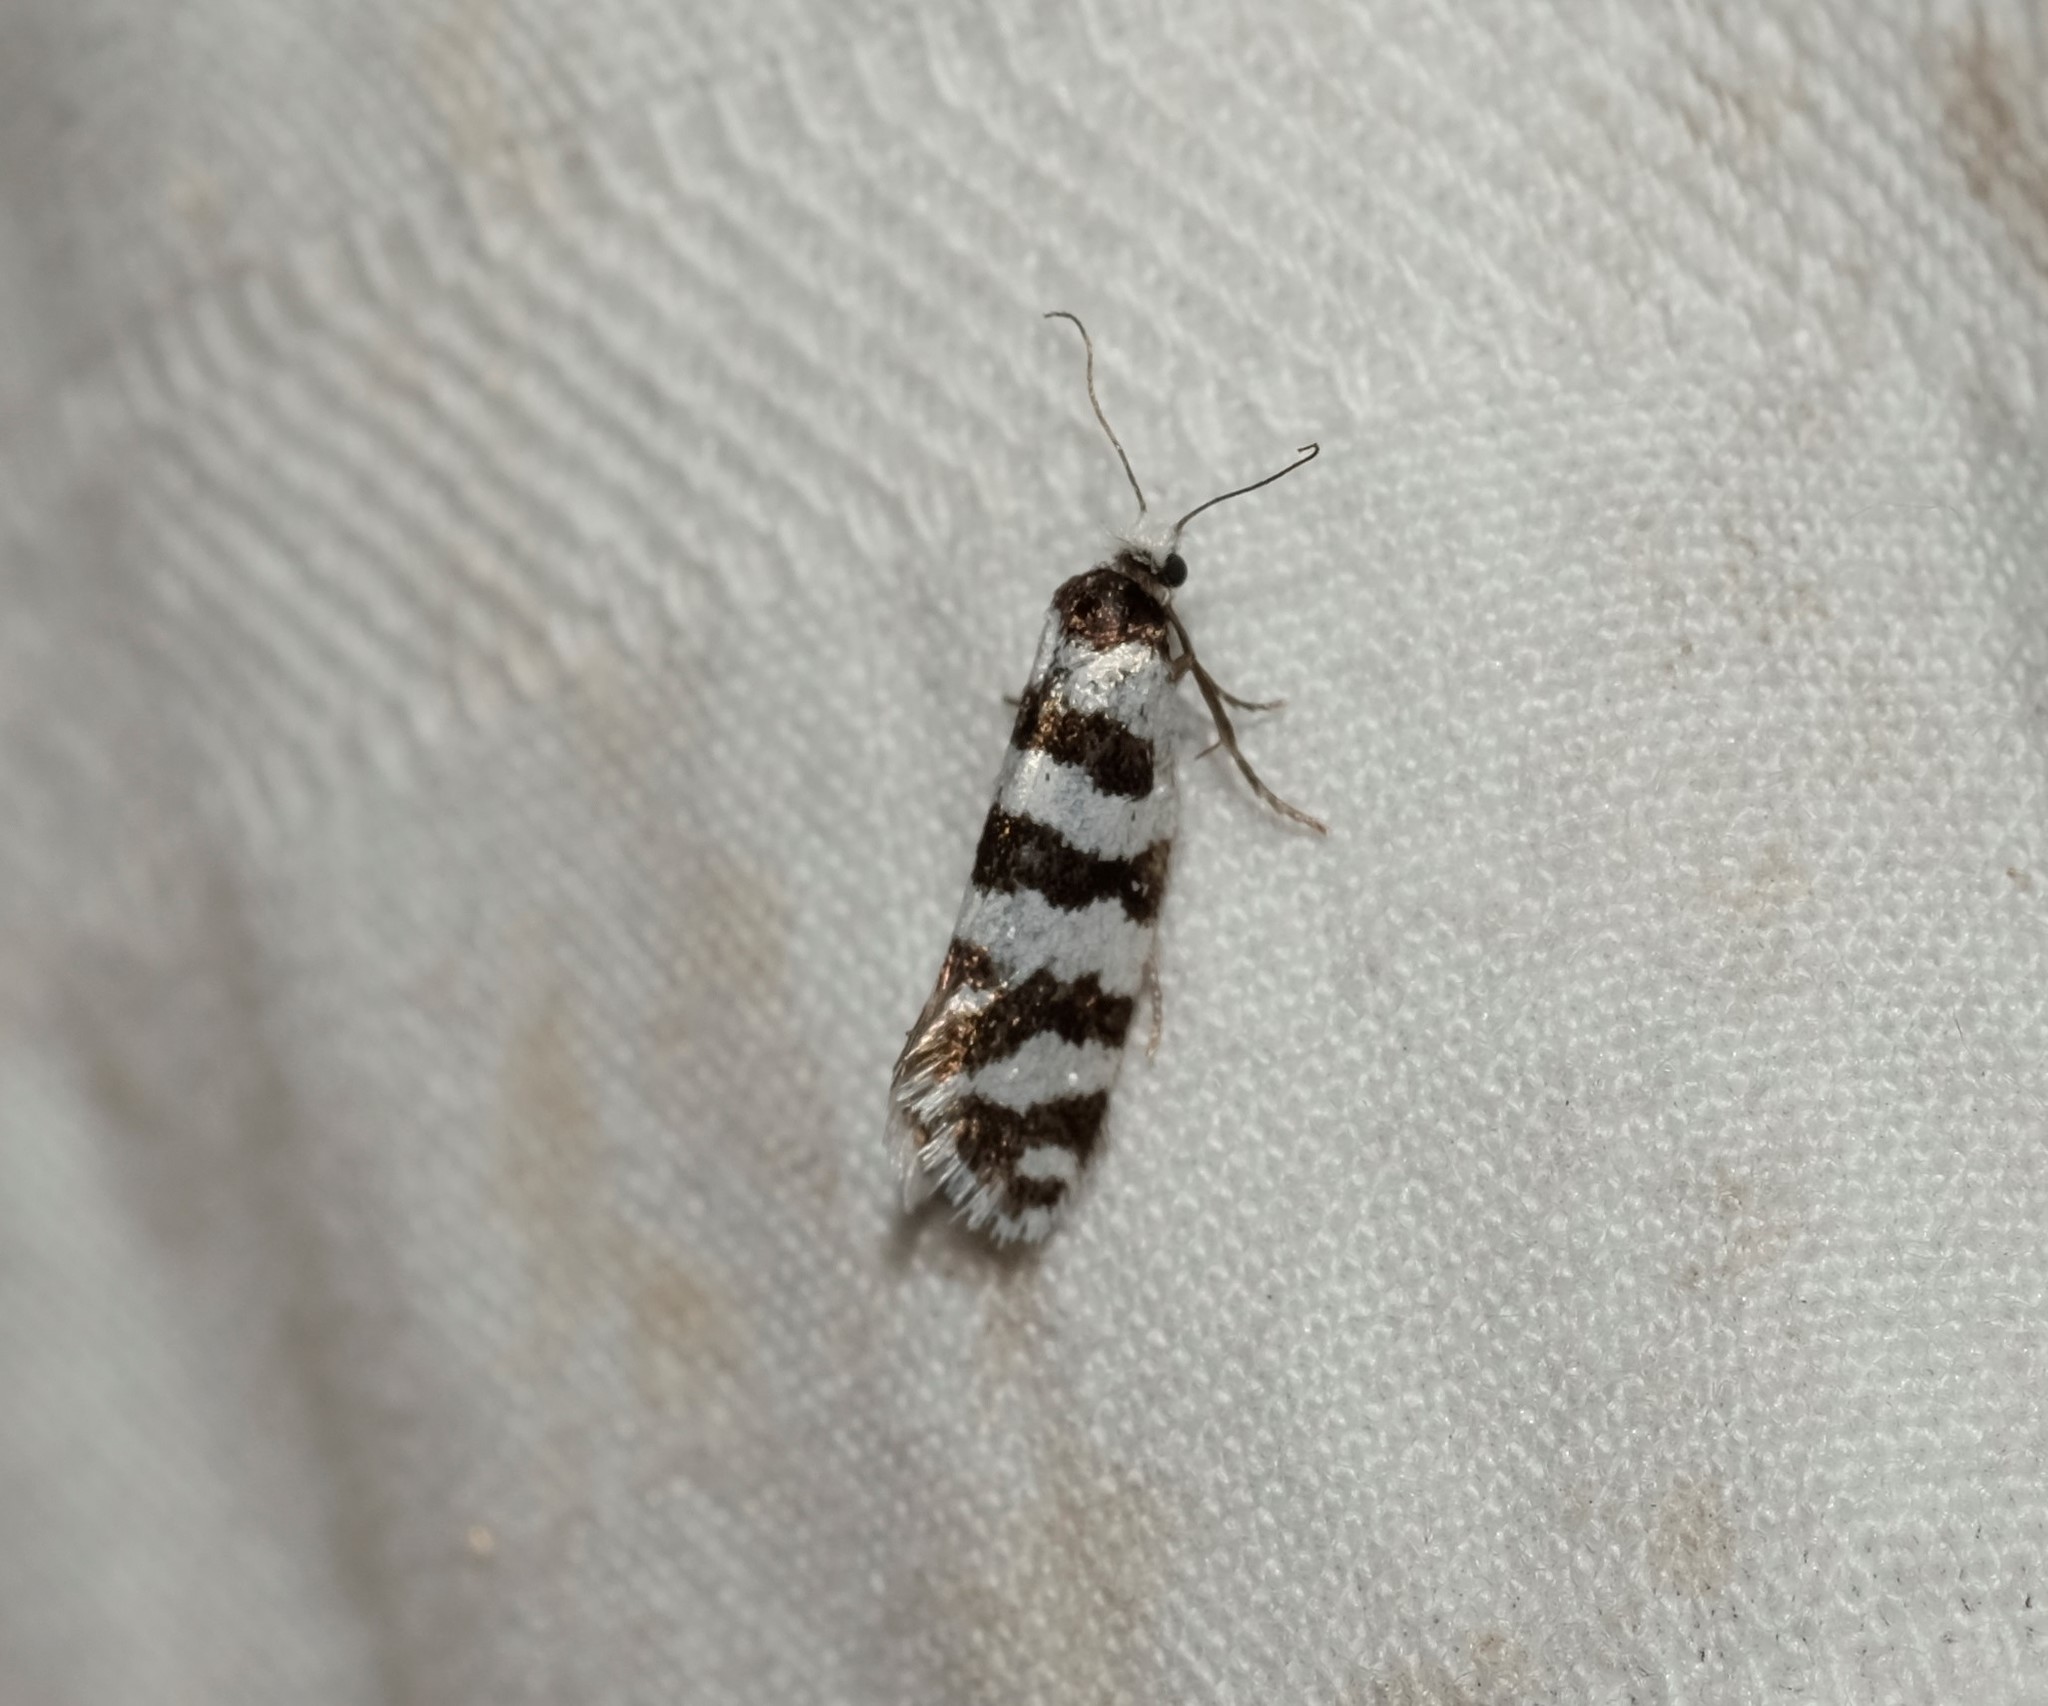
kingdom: Animalia
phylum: Arthropoda
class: Insecta
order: Lepidoptera
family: Psychidae
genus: Lepidoscia
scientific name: Lepidoscia cataphracta
